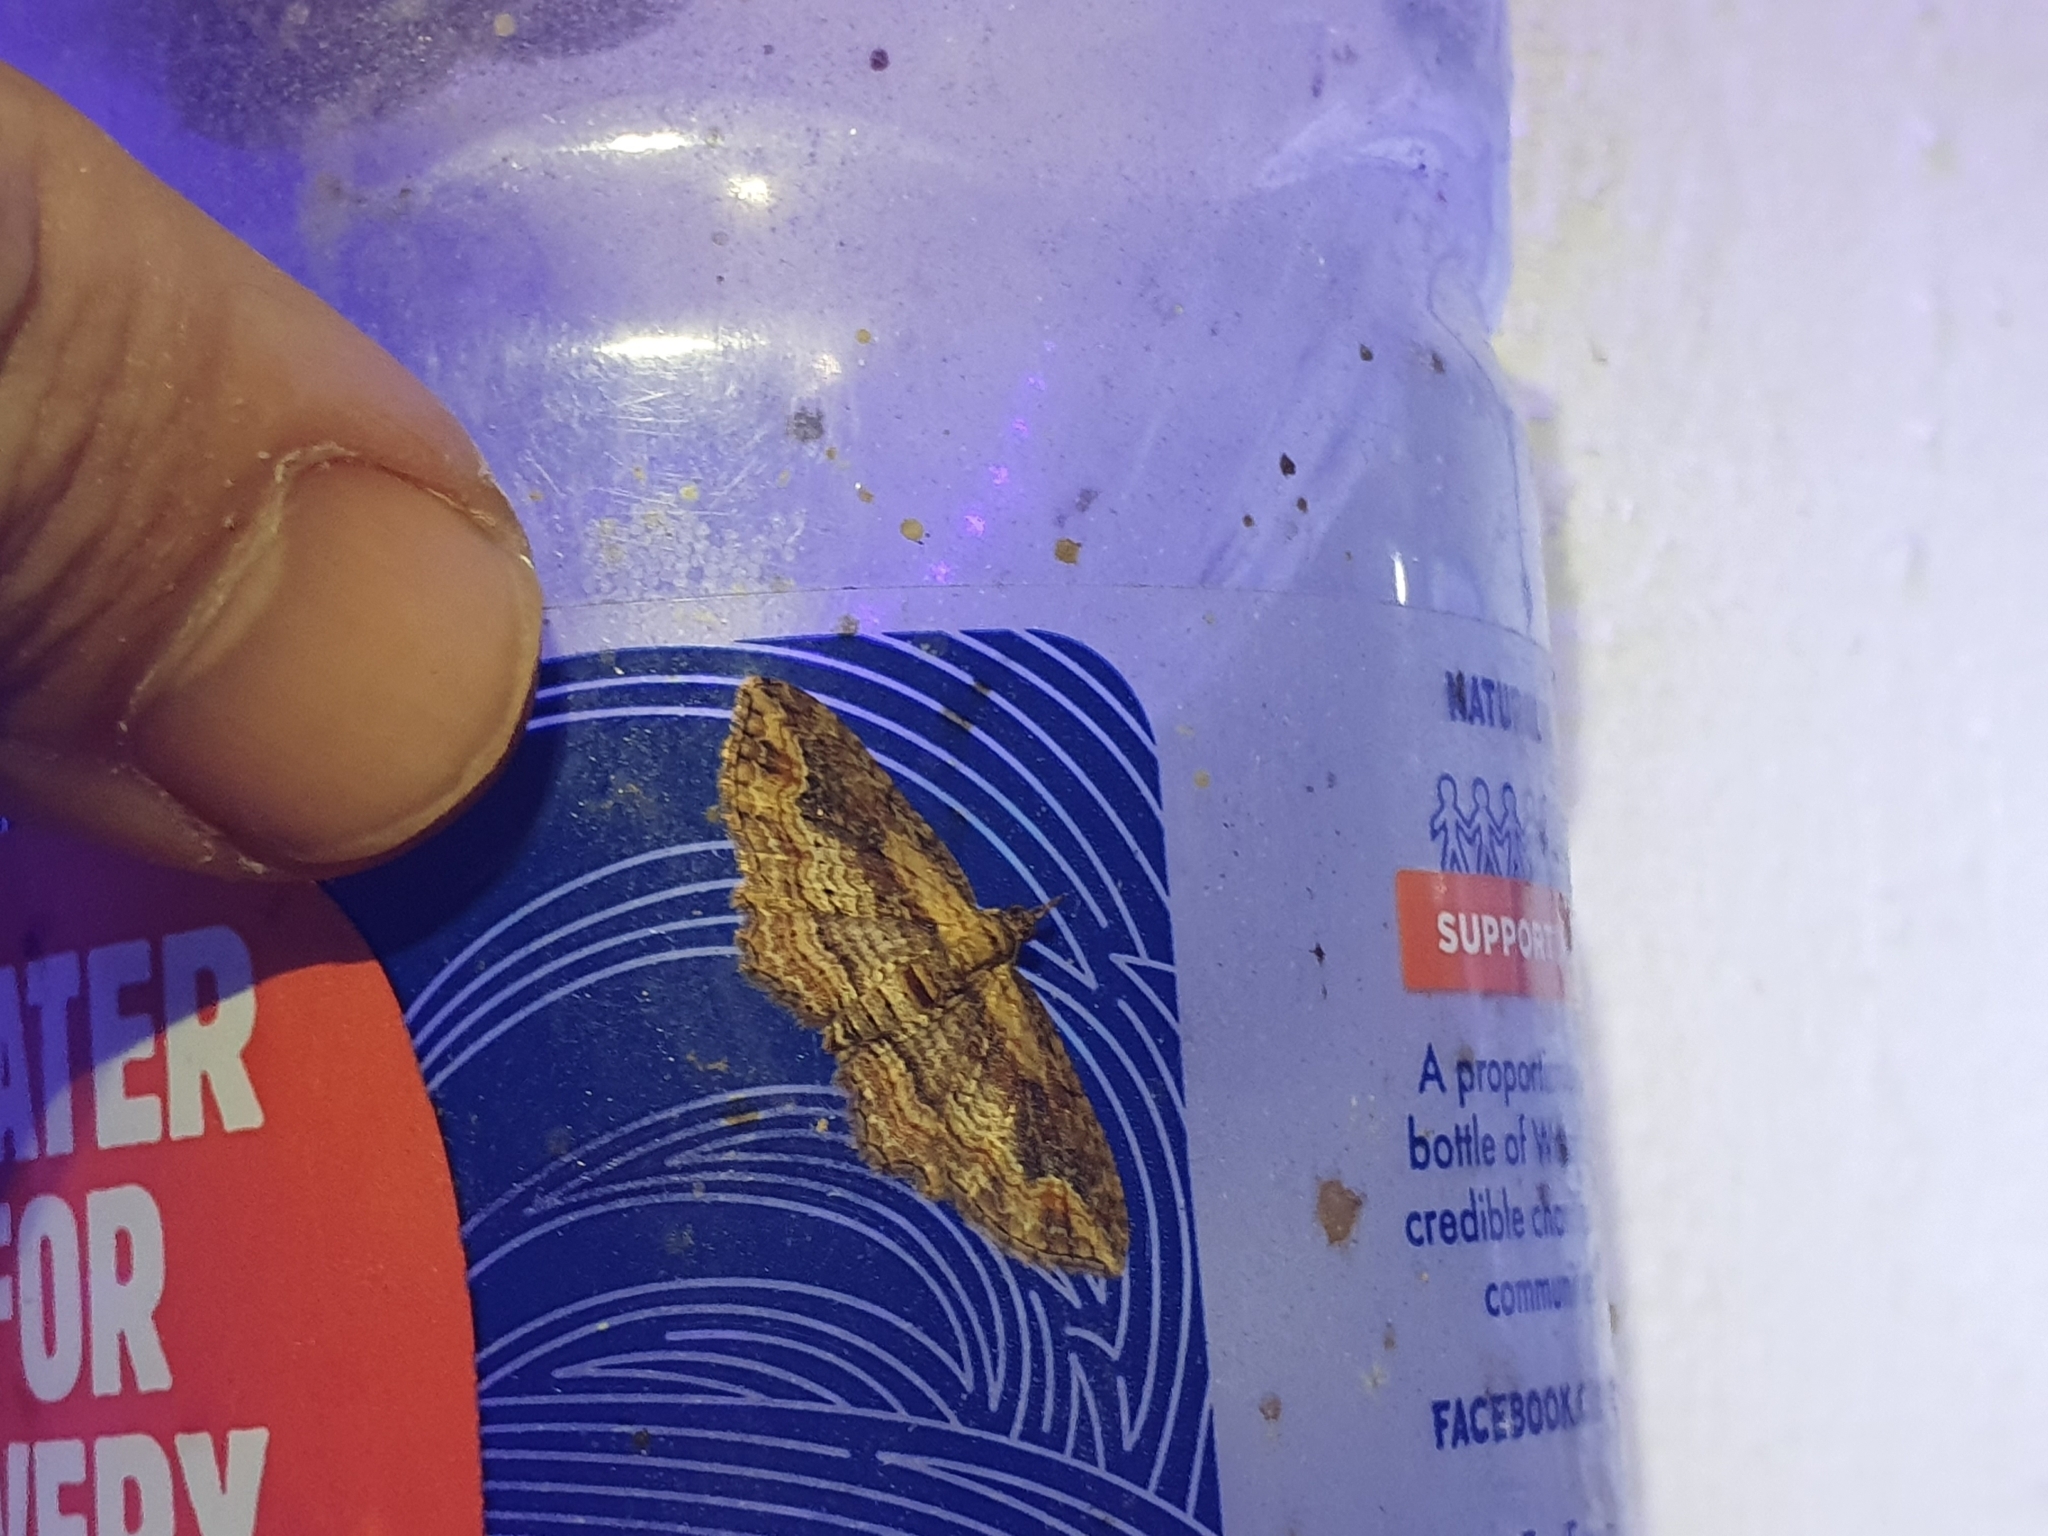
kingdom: Animalia
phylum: Arthropoda
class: Insecta
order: Lepidoptera
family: Geometridae
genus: Chloroclystis
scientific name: Chloroclystis filata
